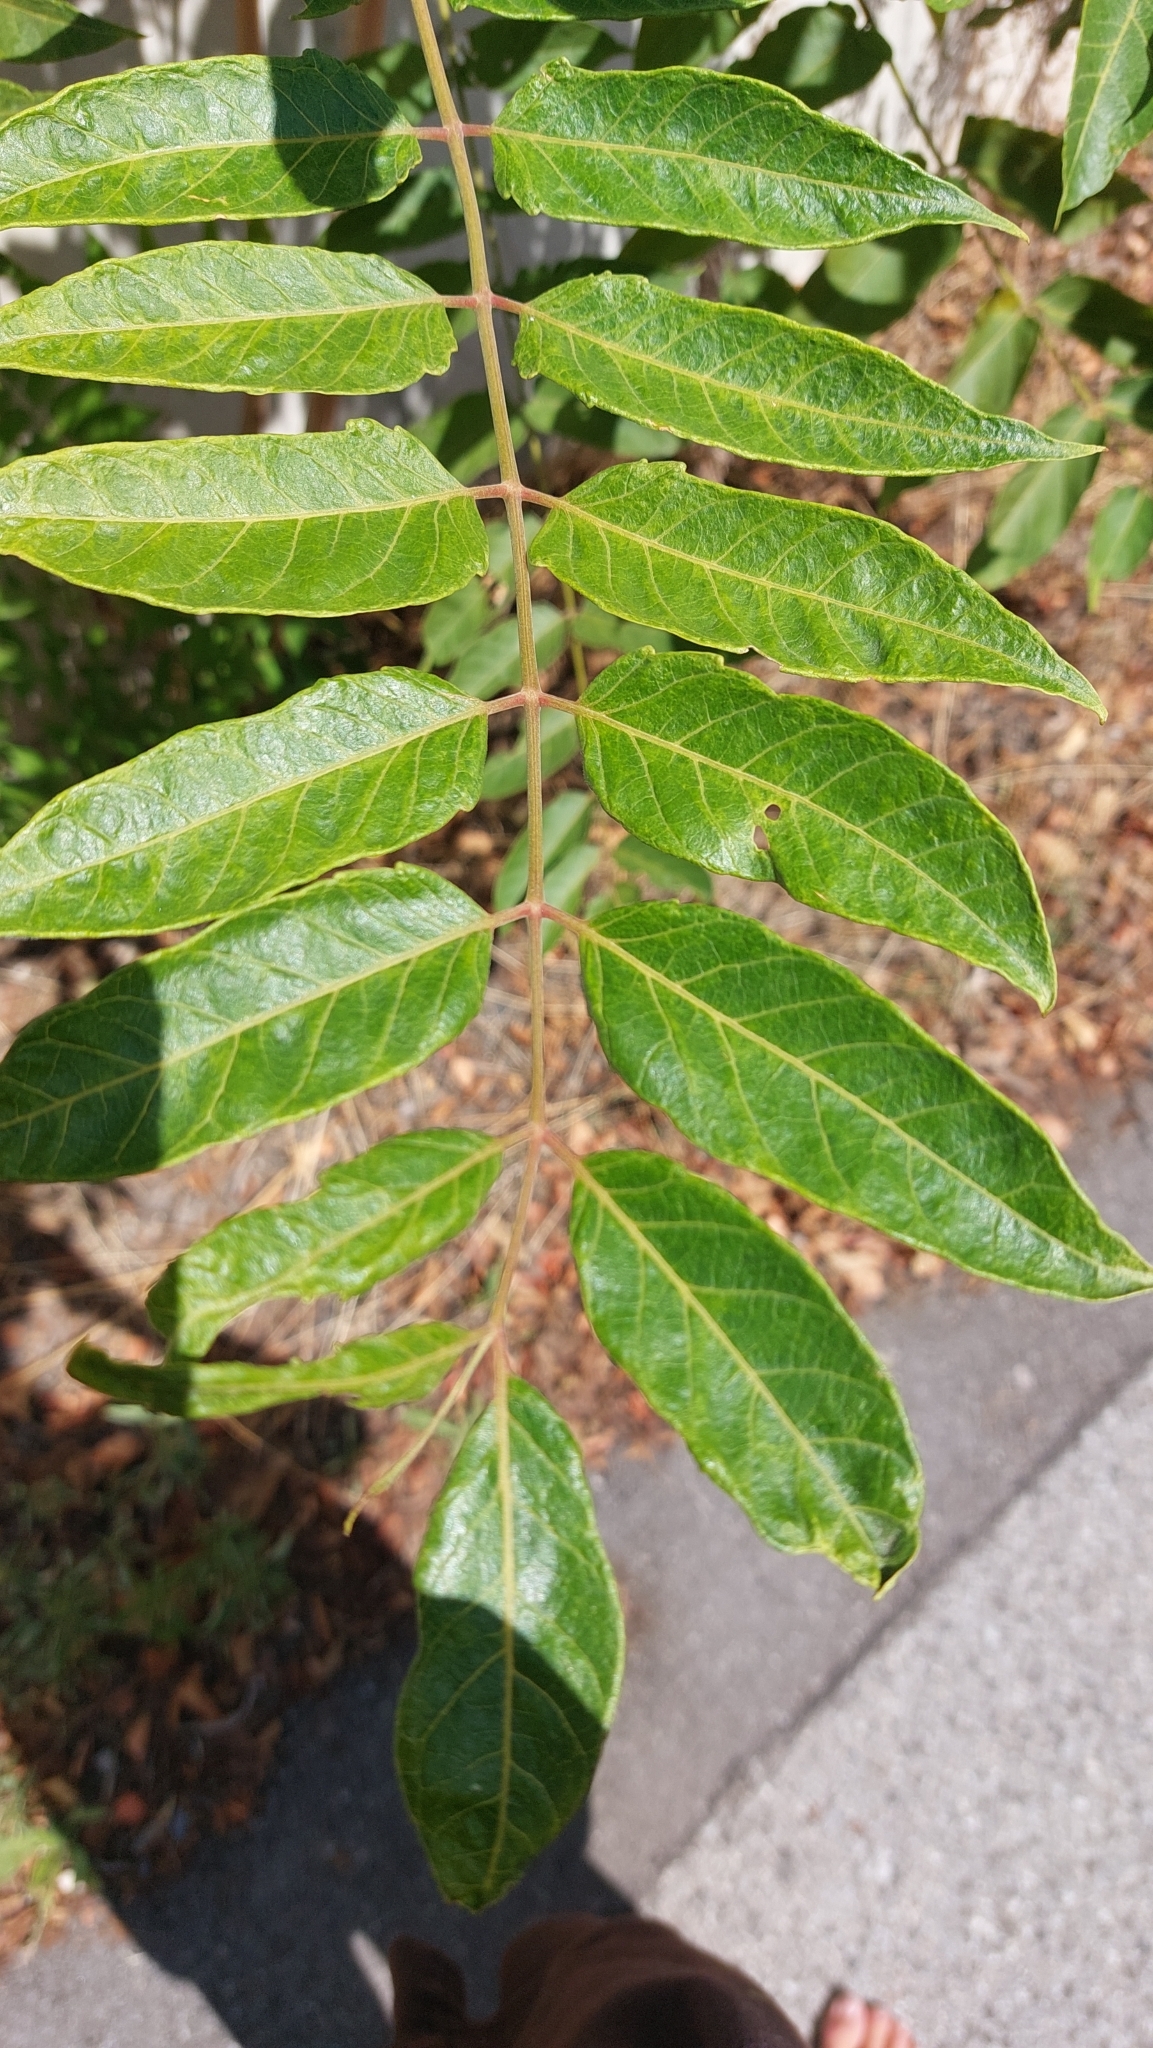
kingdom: Plantae
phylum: Tracheophyta
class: Magnoliopsida
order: Sapindales
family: Simaroubaceae
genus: Ailanthus
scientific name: Ailanthus altissima
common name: Tree-of-heaven
